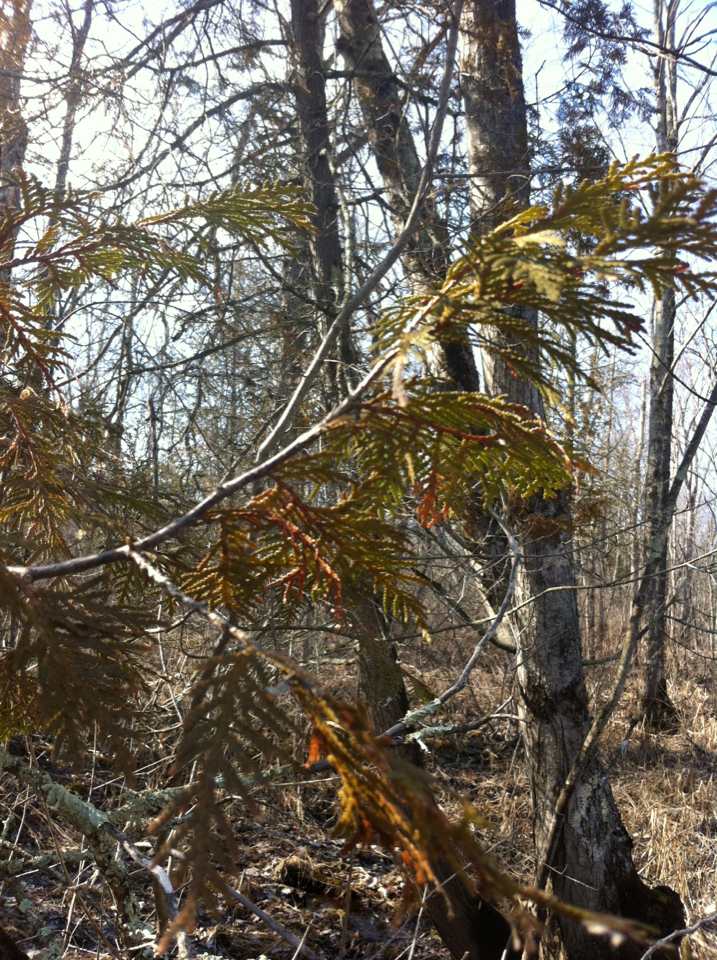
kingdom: Plantae
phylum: Tracheophyta
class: Pinopsida
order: Pinales
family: Cupressaceae
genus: Thuja
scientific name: Thuja occidentalis
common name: Northern white-cedar
